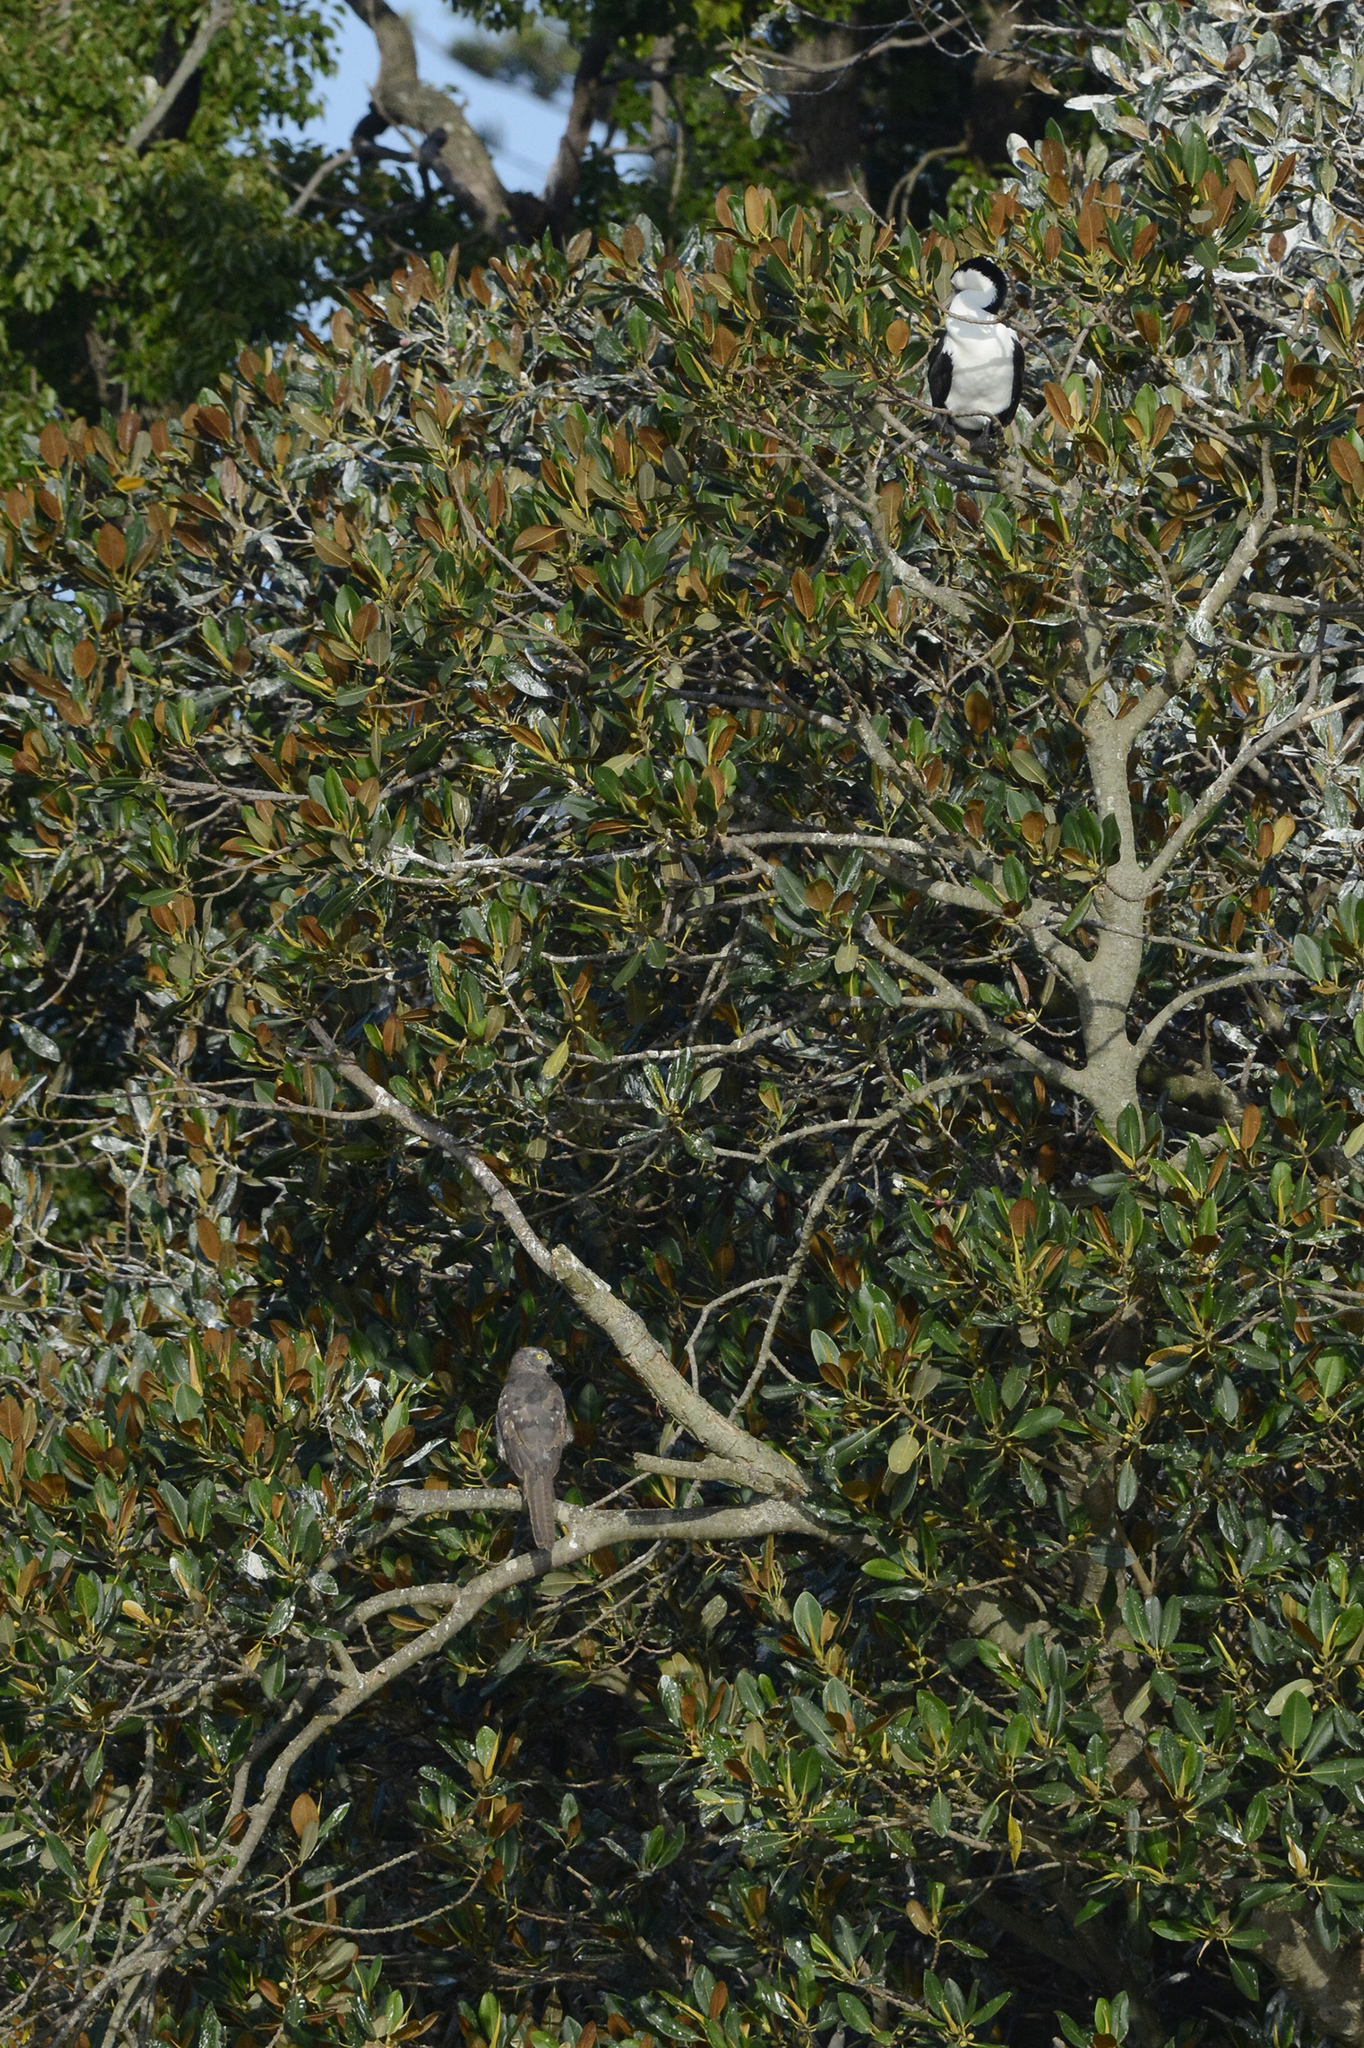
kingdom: Animalia
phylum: Chordata
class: Aves
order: Accipitriformes
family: Accipitridae
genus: Accipiter
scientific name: Accipiter fasciatus
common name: Brown goshawk
